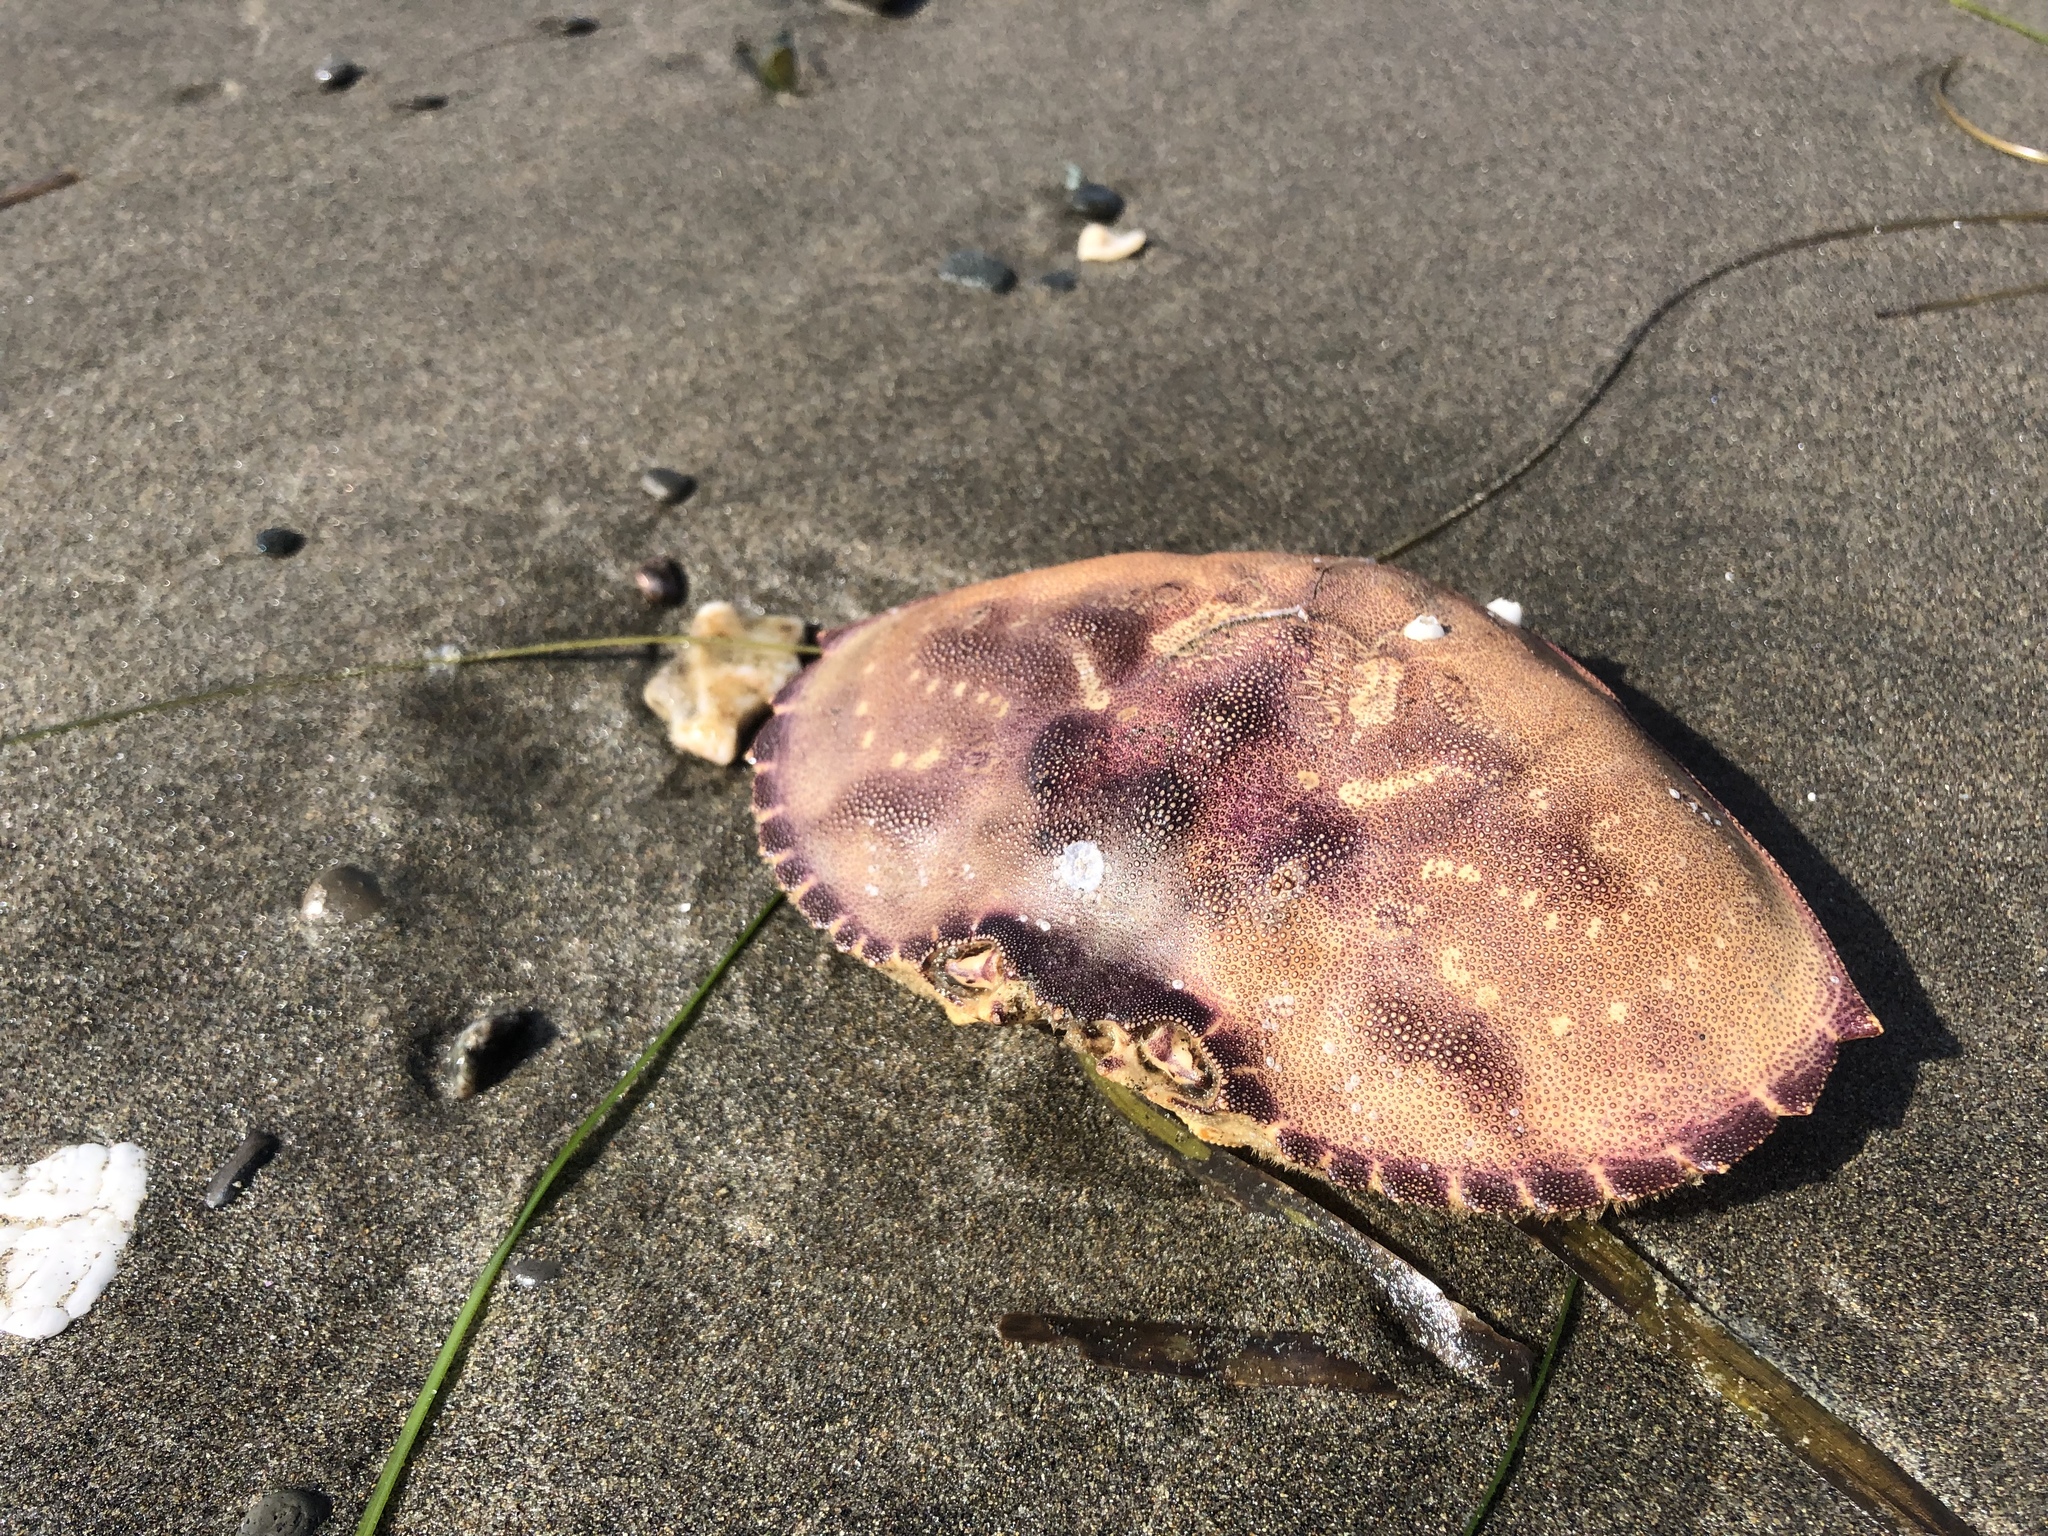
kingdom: Animalia
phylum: Arthropoda
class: Malacostraca
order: Decapoda
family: Cancridae
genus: Metacarcinus
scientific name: Metacarcinus magister
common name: Californian crab
